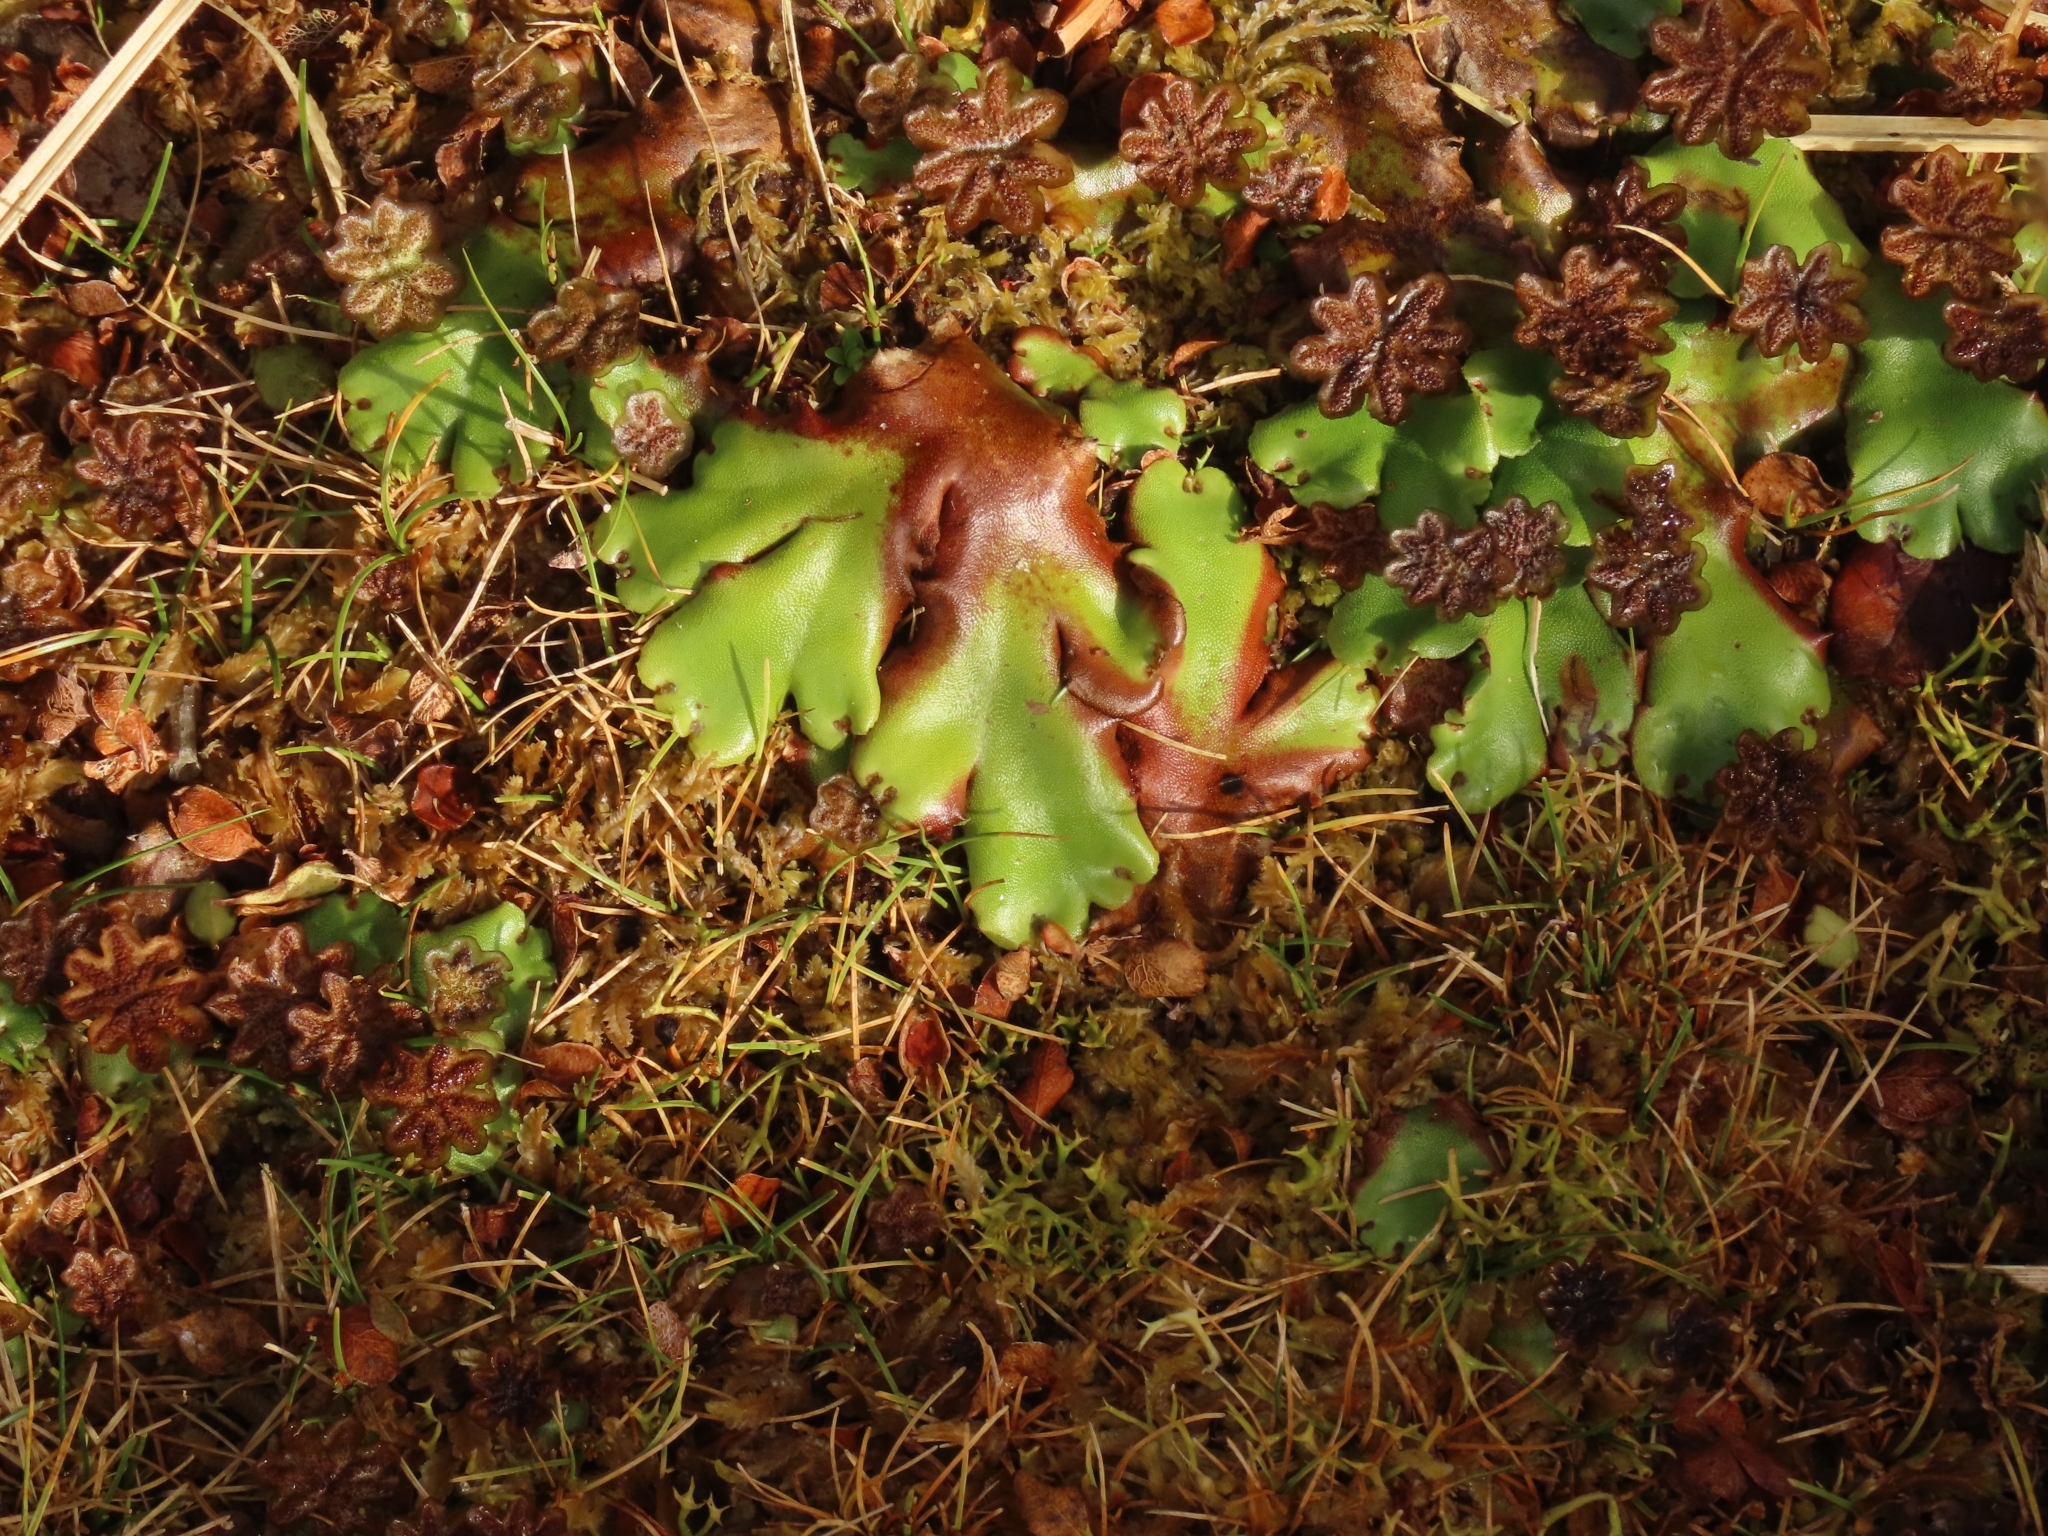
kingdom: Plantae
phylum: Marchantiophyta
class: Marchantiopsida
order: Marchantiales
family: Marchantiaceae
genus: Marchantia
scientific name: Marchantia berteroana
